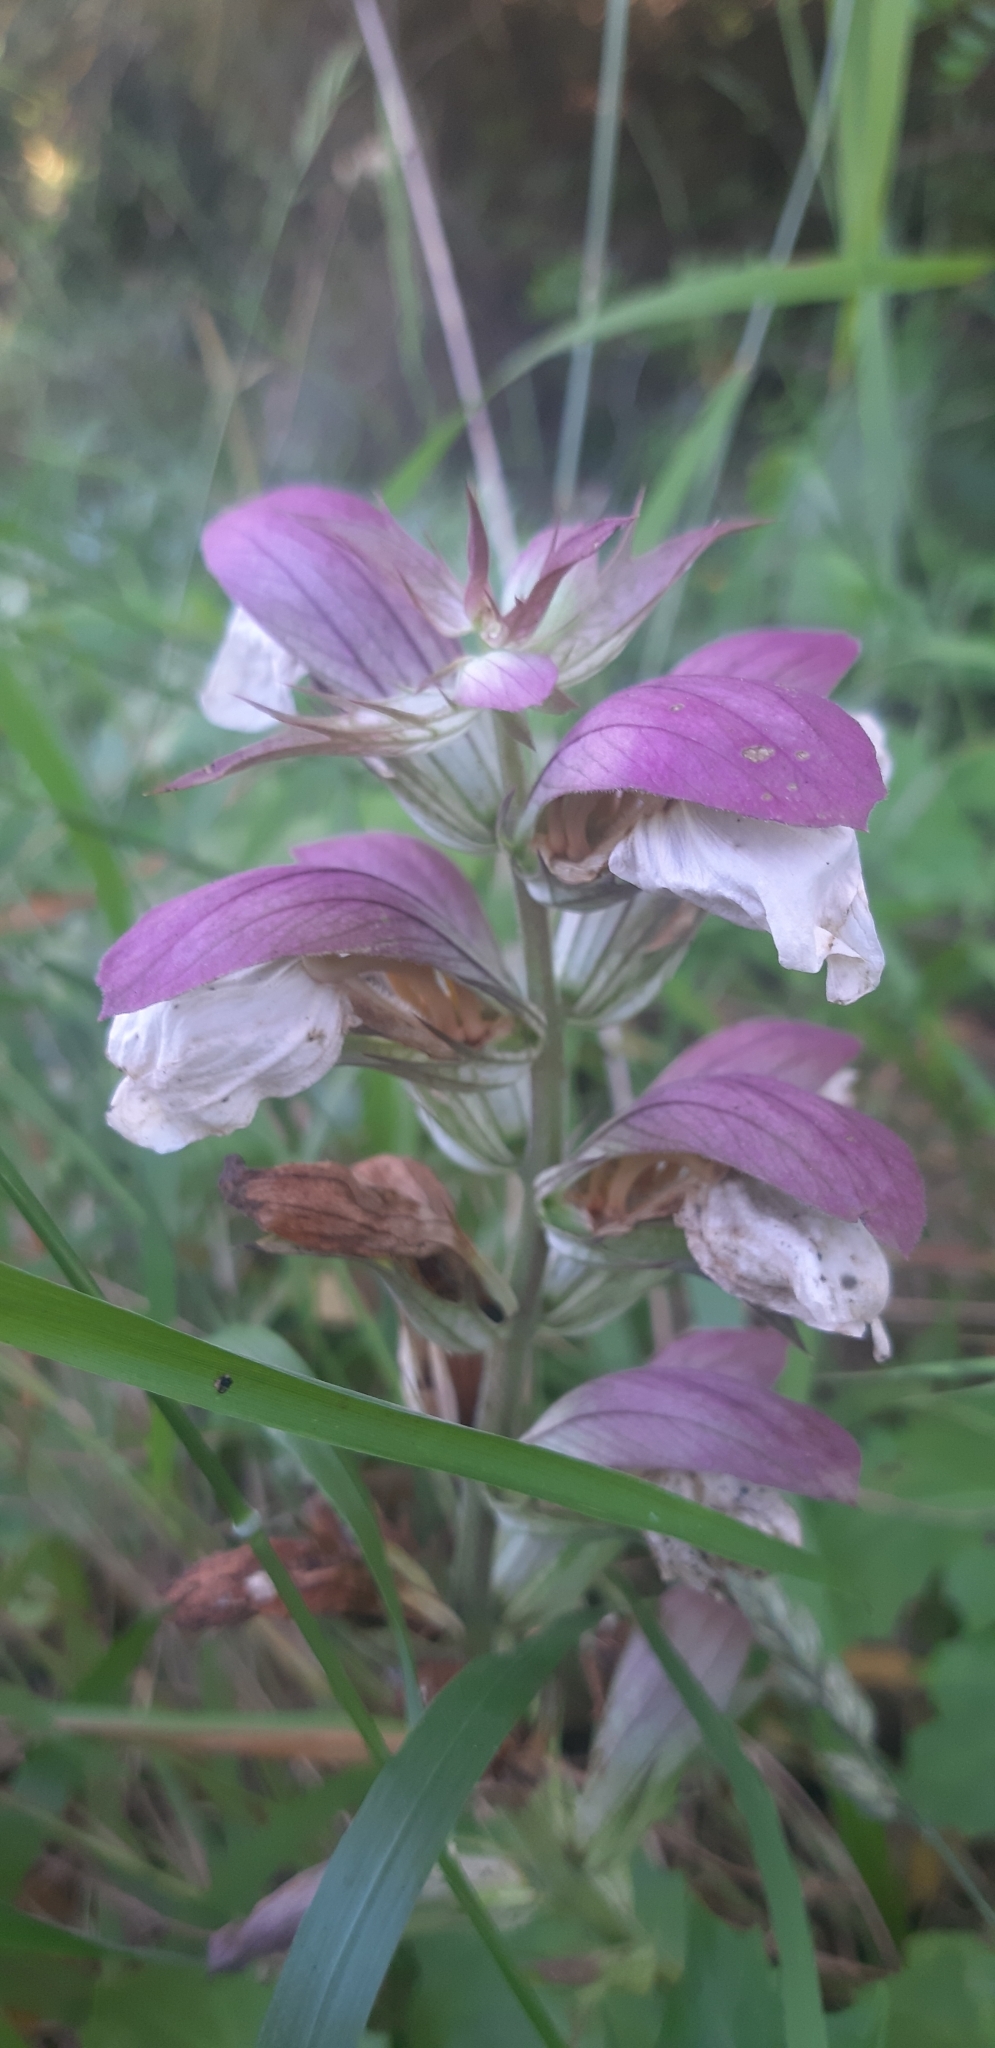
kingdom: Plantae
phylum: Tracheophyta
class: Magnoliopsida
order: Lamiales
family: Acanthaceae
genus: Acanthus
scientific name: Acanthus mollis
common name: Bear's-breech
